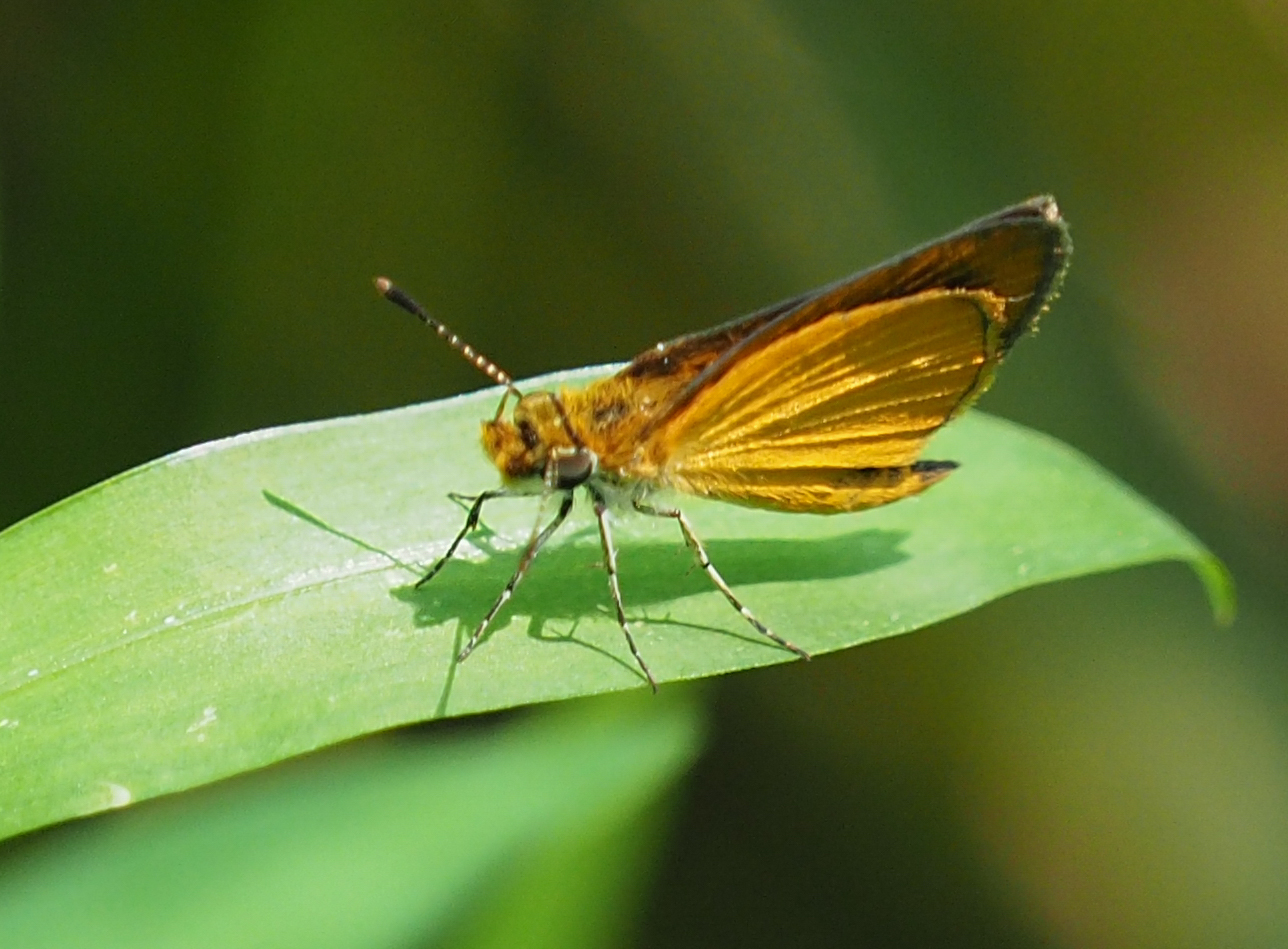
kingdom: Animalia
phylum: Arthropoda
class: Insecta
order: Lepidoptera
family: Hesperiidae
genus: Ancyloxypha
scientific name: Ancyloxypha numitor
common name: Least skipper
